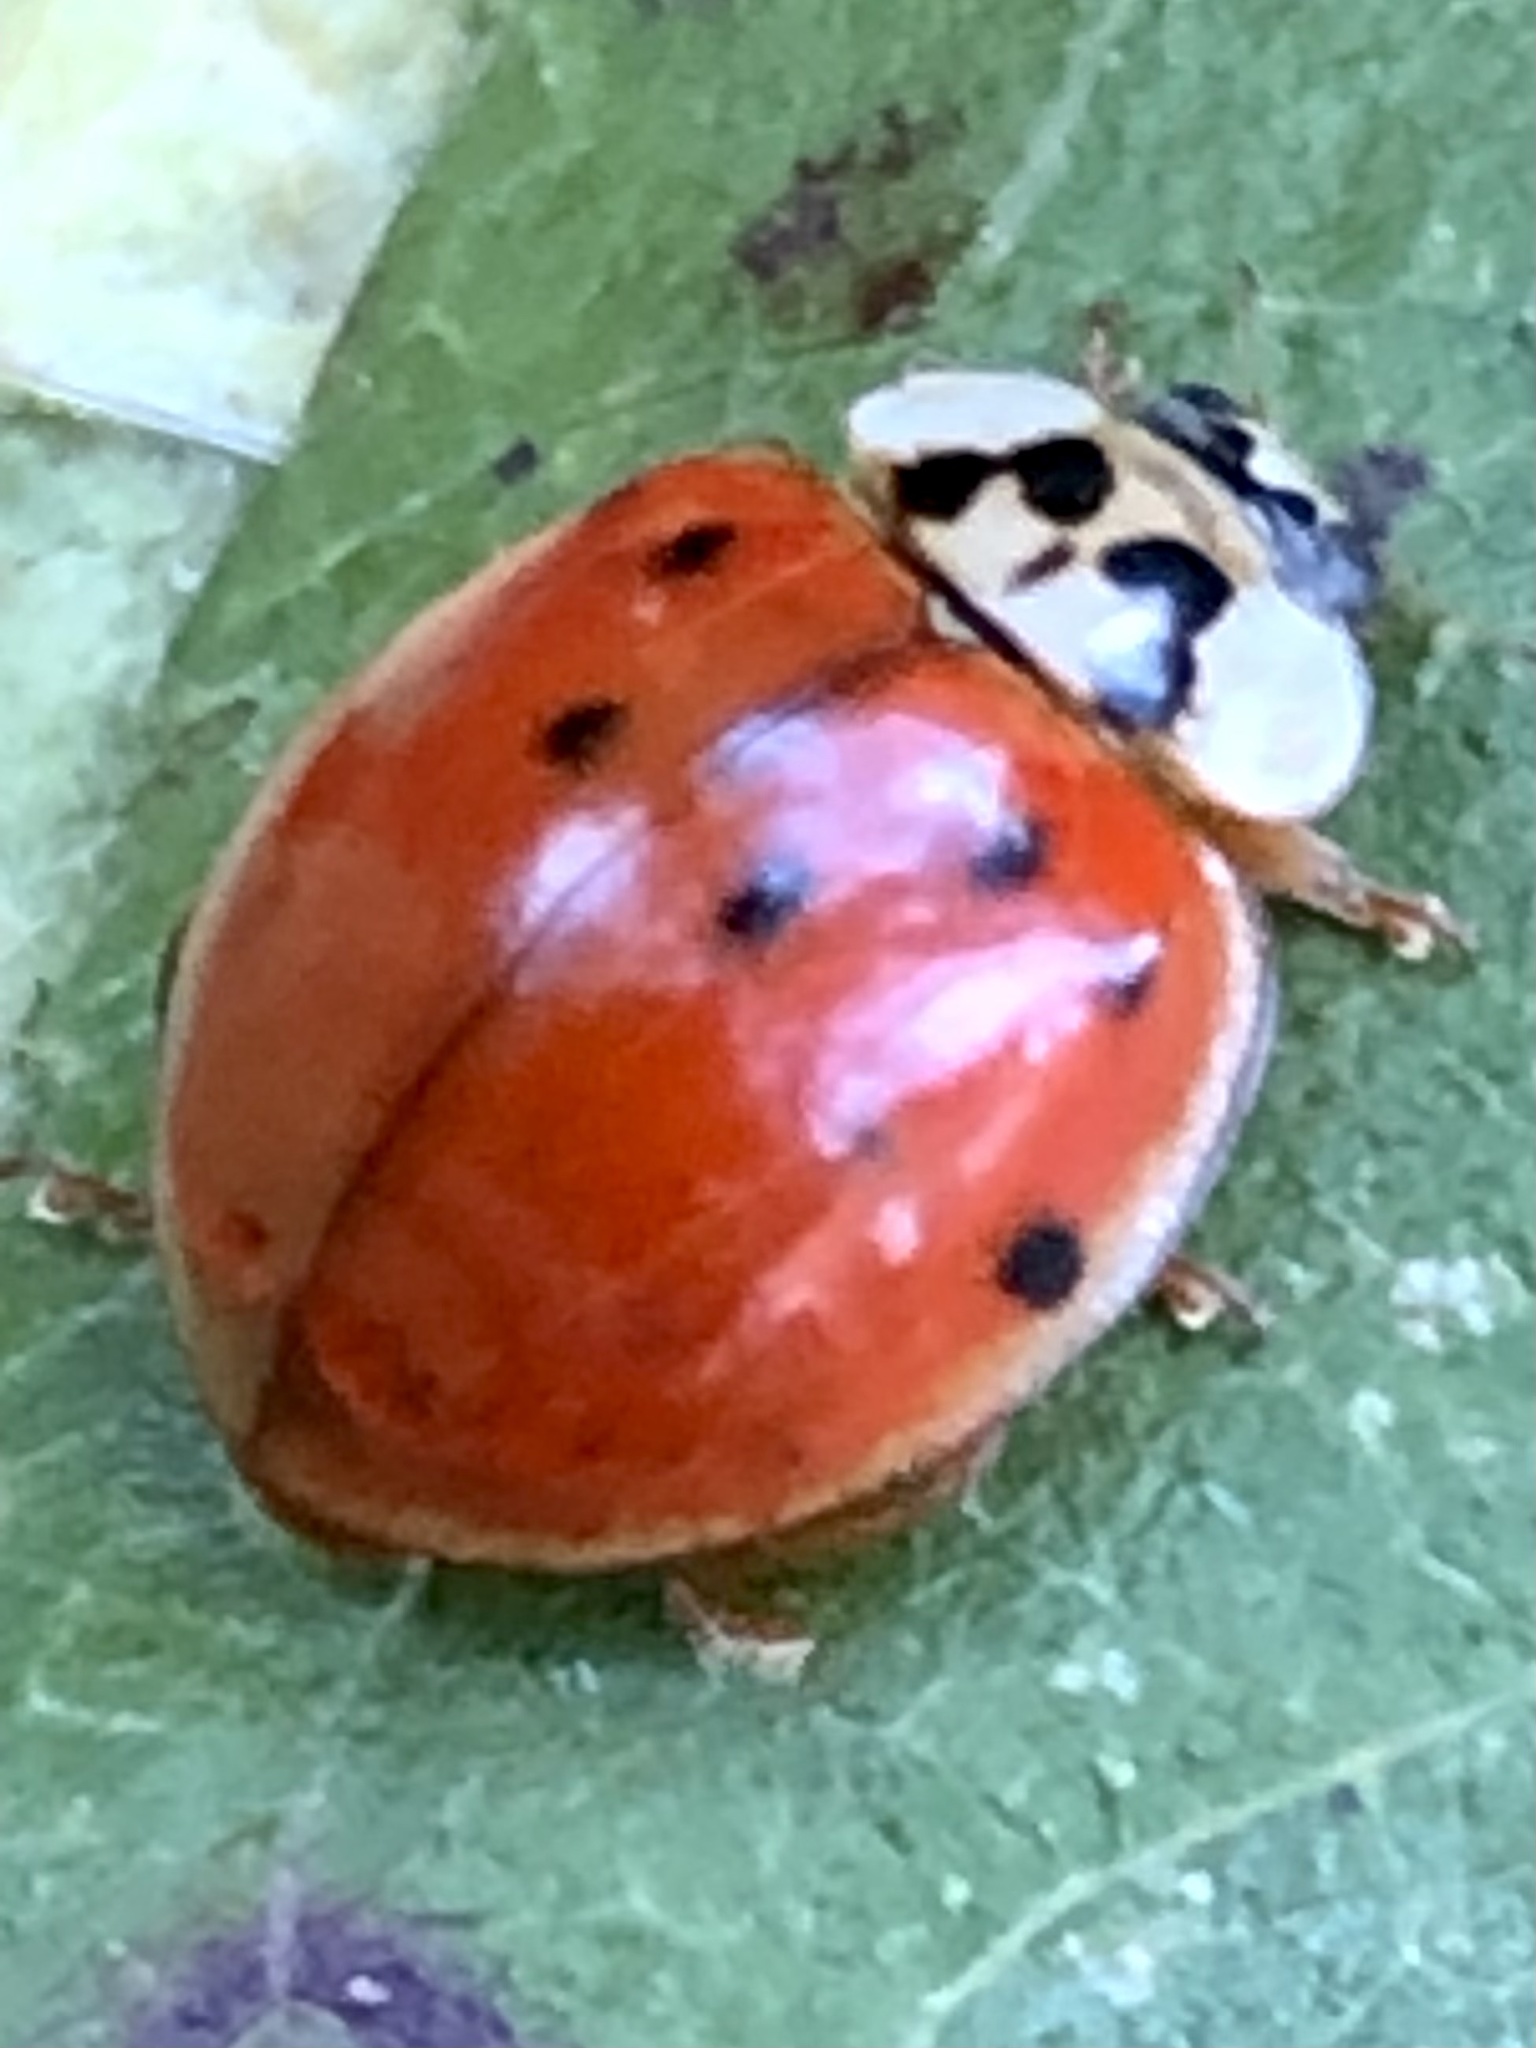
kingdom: Animalia
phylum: Arthropoda
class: Insecta
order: Coleoptera
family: Coccinellidae
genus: Harmonia
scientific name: Harmonia axyridis
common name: Harlequin ladybird
